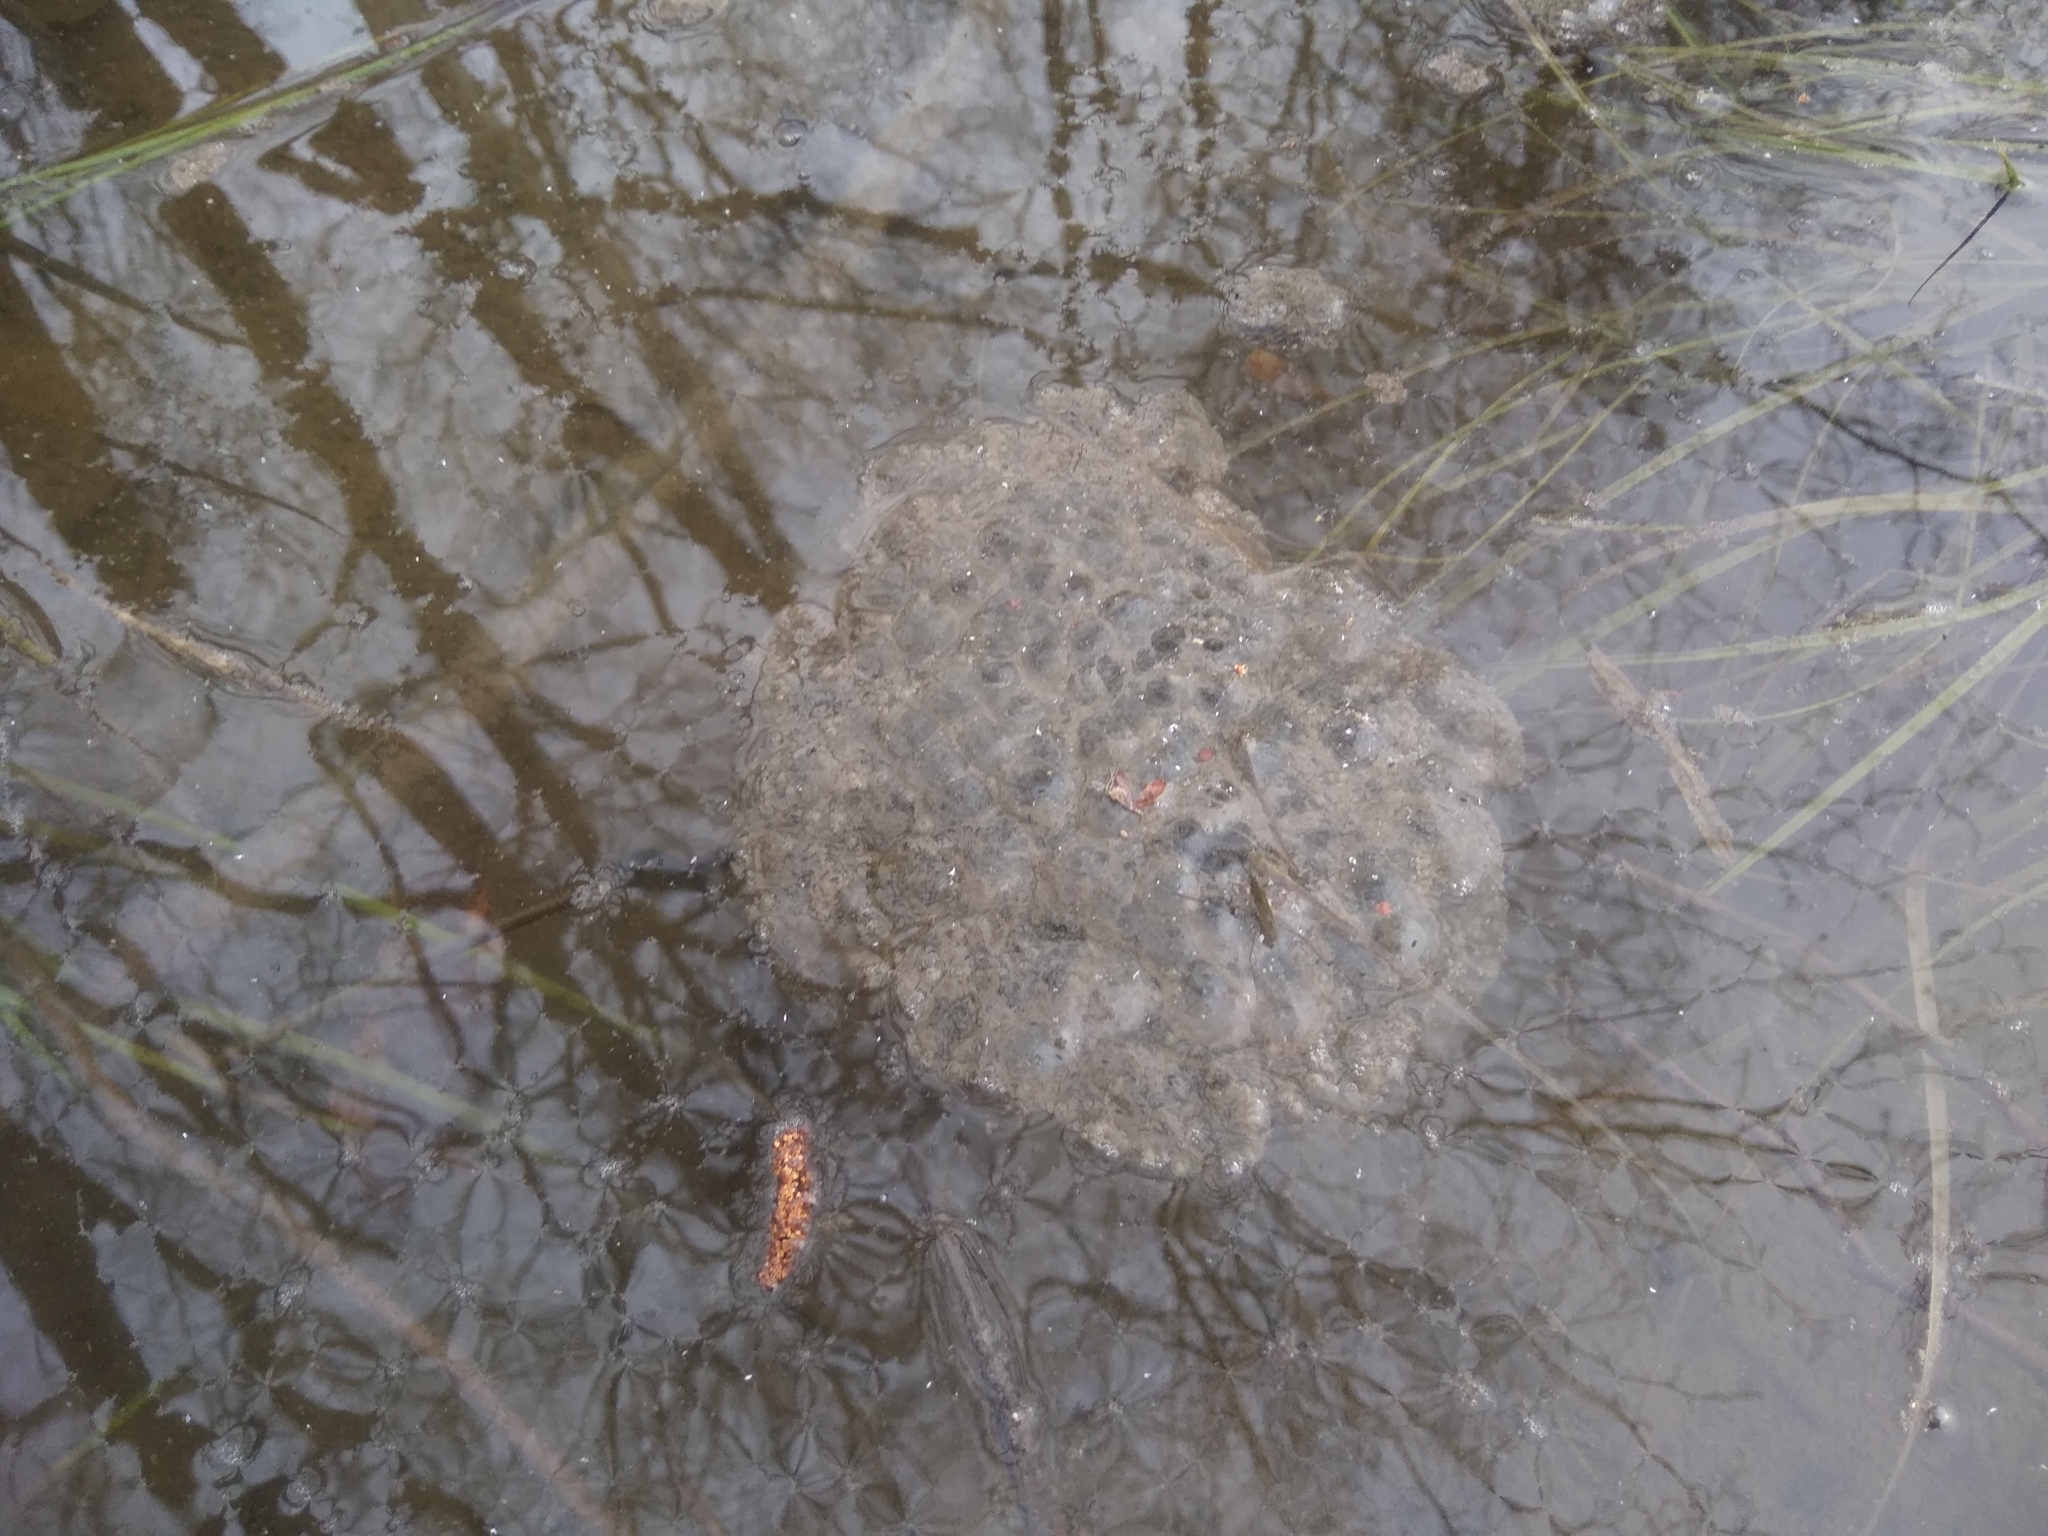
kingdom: Animalia
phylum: Chordata
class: Amphibia
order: Anura
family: Ranidae
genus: Rana
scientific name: Rana dalmatina
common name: Agile frog
